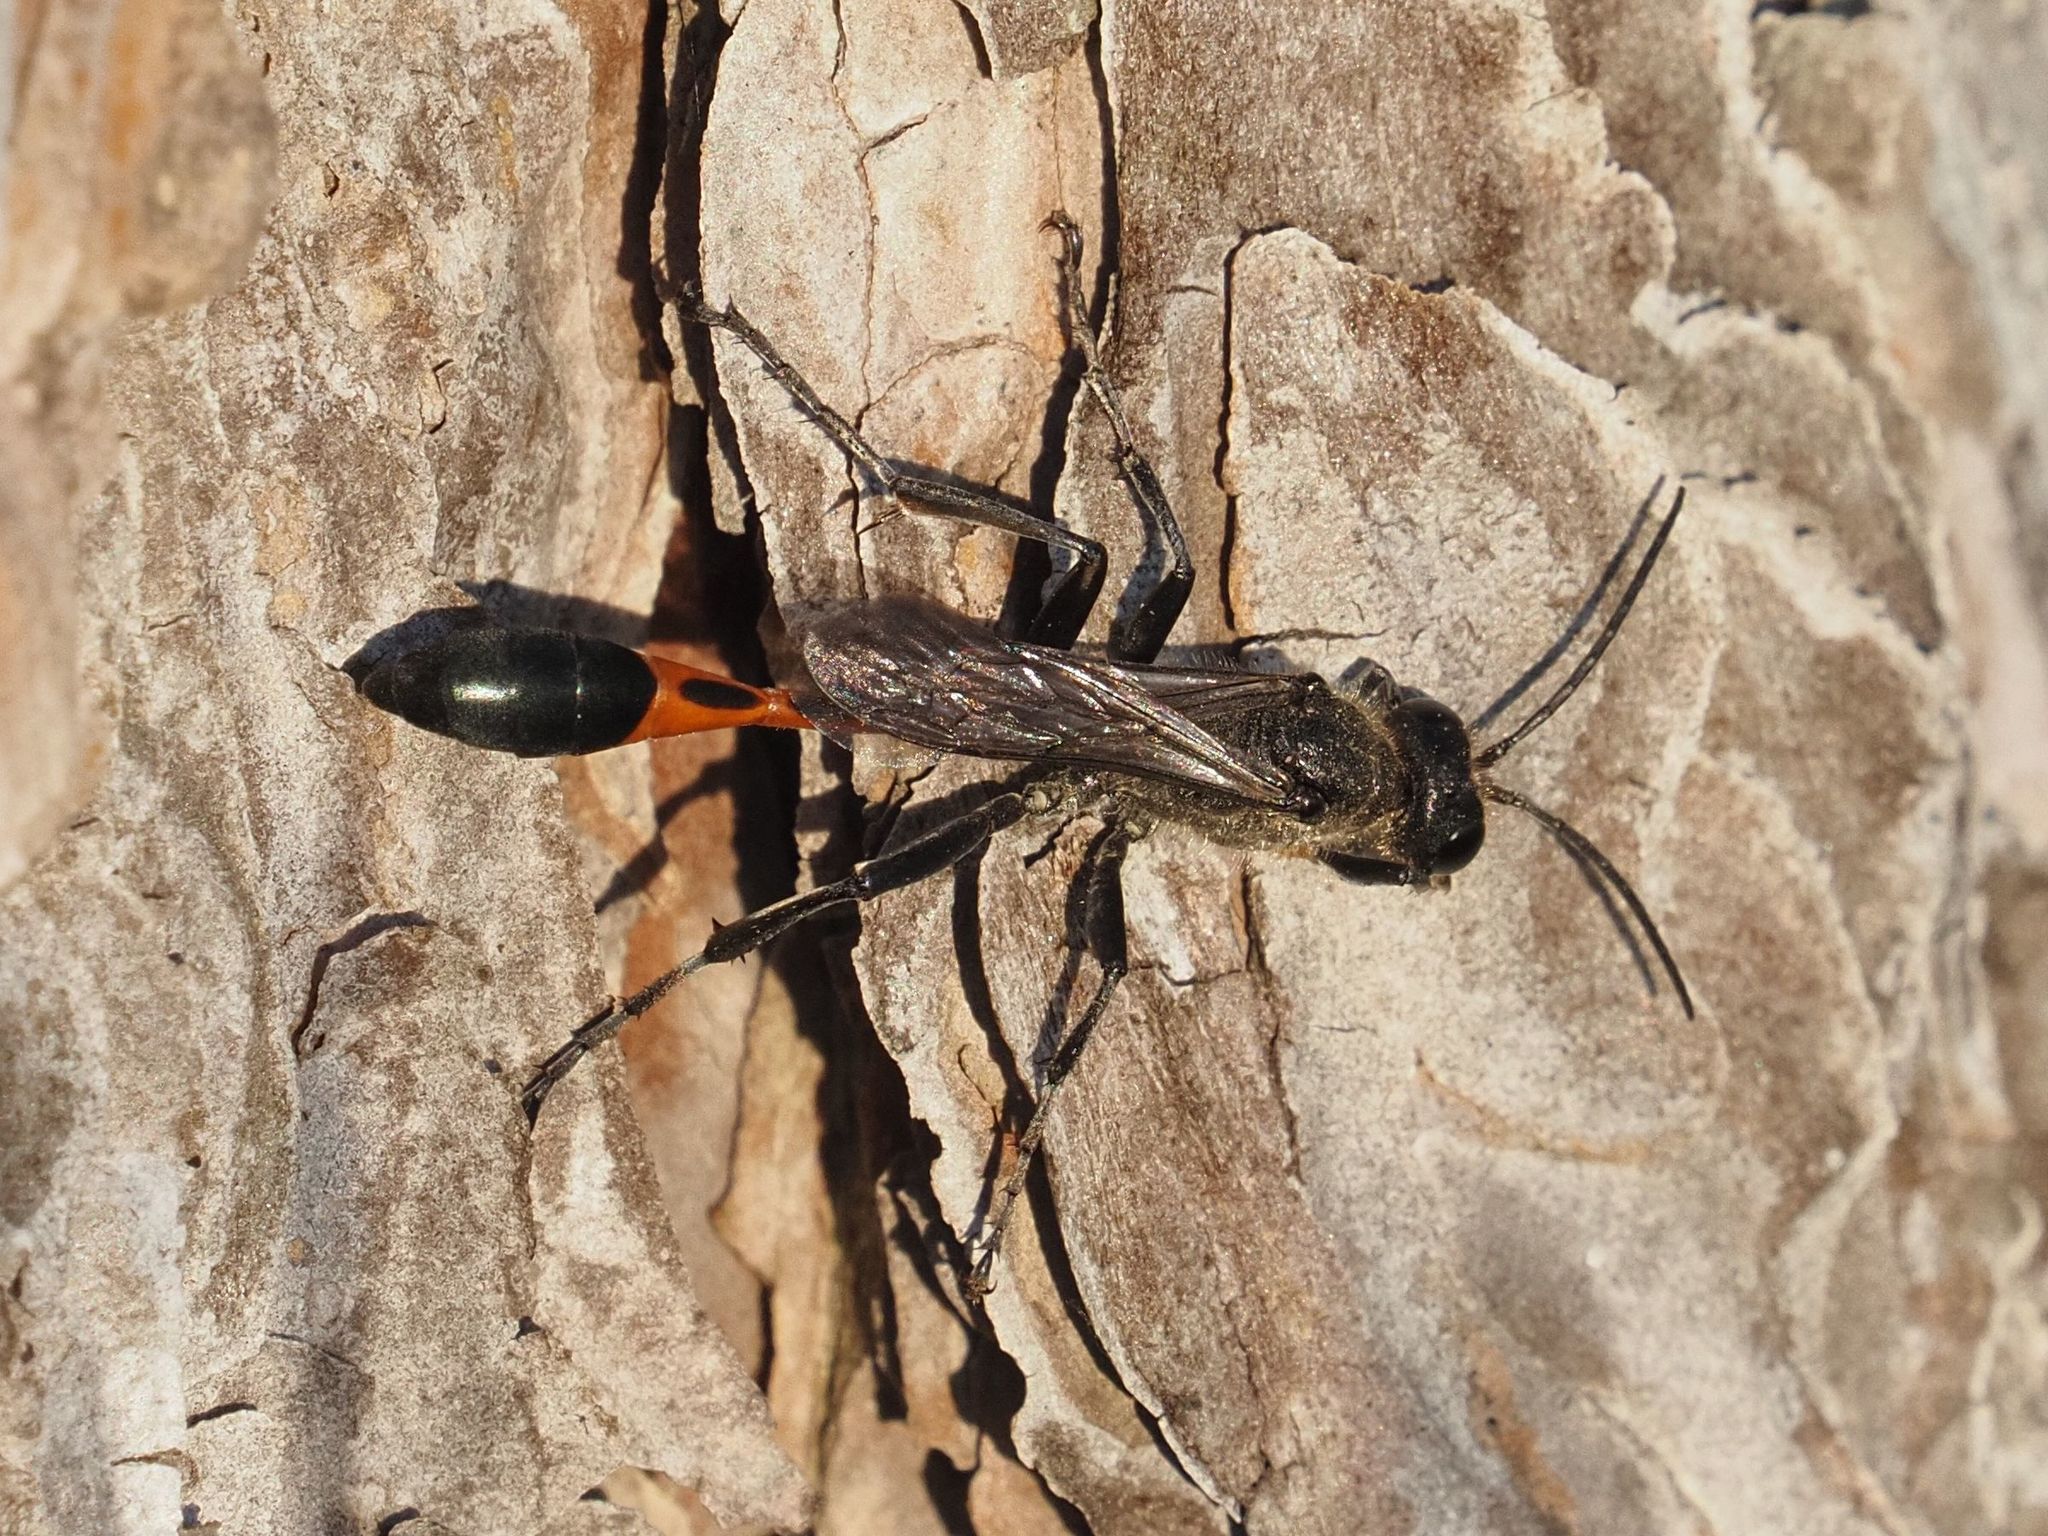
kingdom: Animalia
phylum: Arthropoda
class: Insecta
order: Hymenoptera
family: Sphecidae
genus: Ammophila
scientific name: Ammophila sabulosa
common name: Red banded sand wasp
